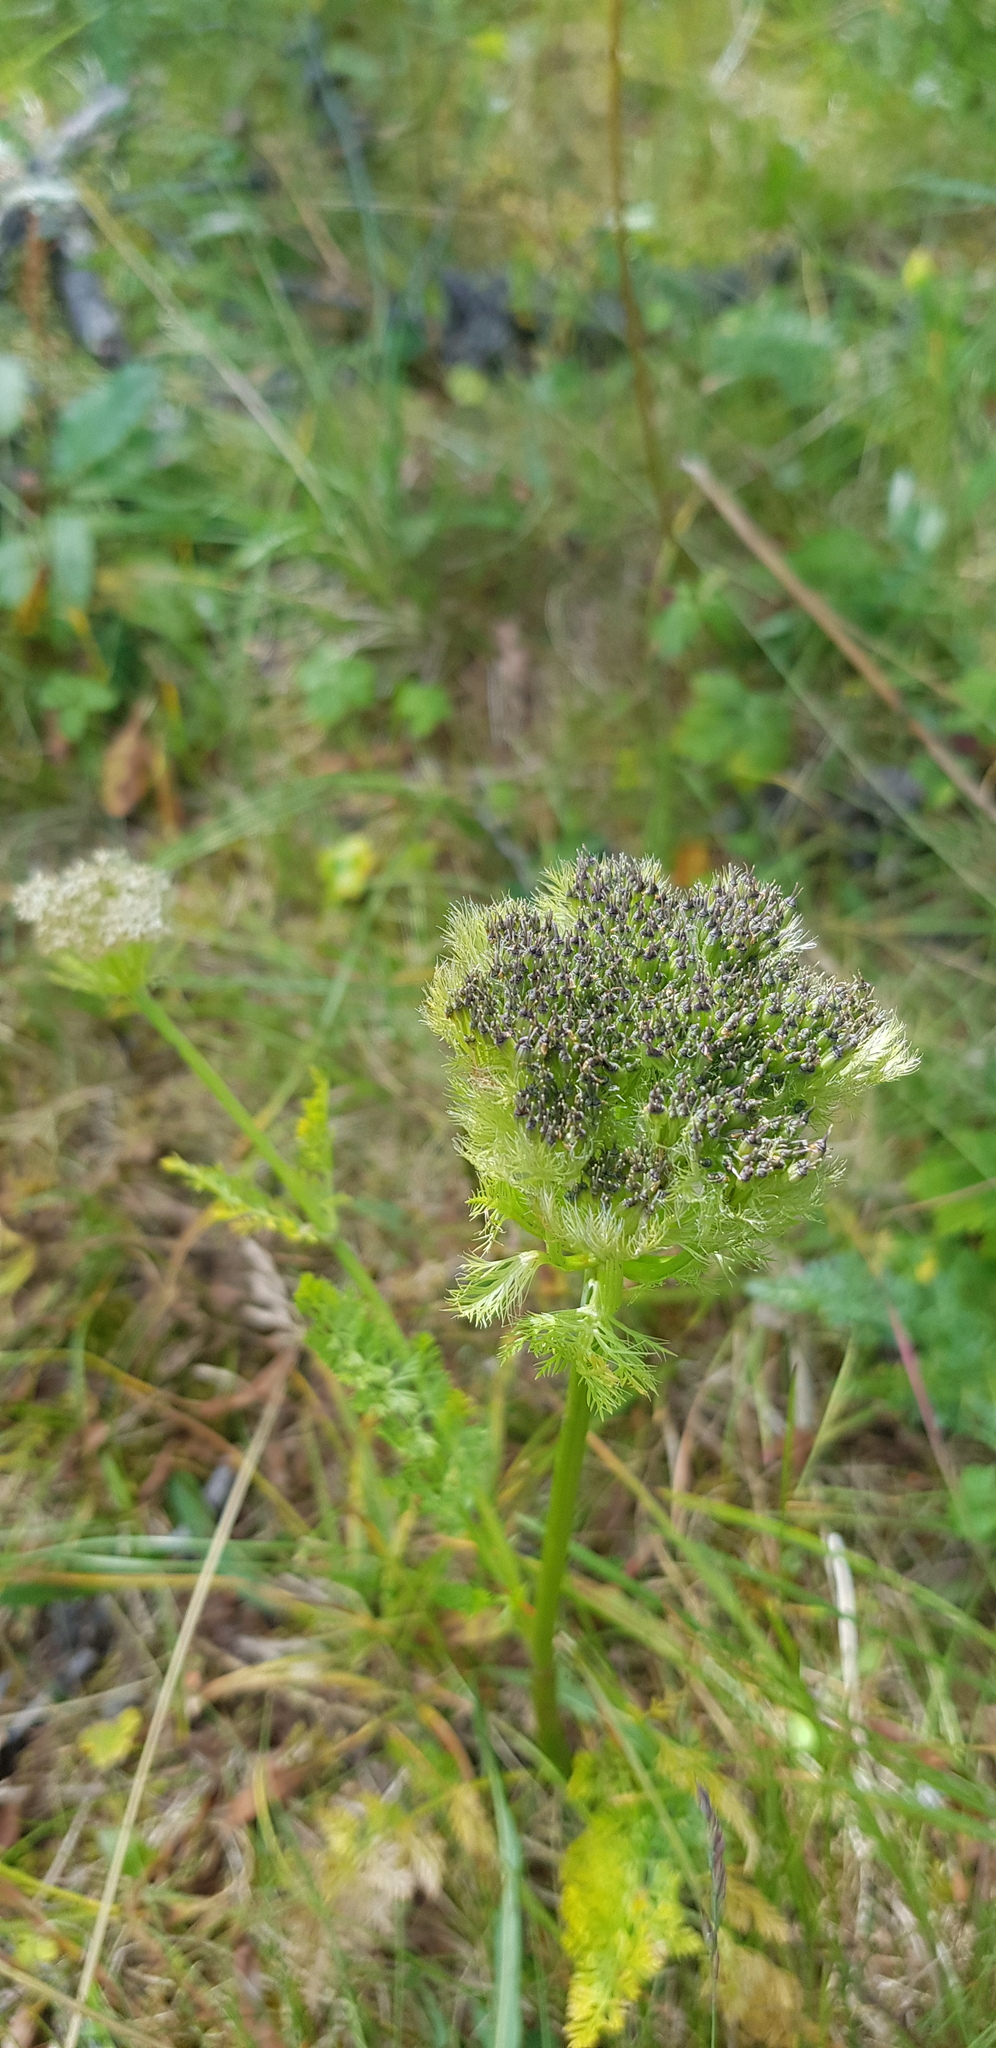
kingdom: Plantae
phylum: Tracheophyta
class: Magnoliopsida
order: Apiales
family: Apiaceae
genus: Schulzia
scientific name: Schulzia crinita
